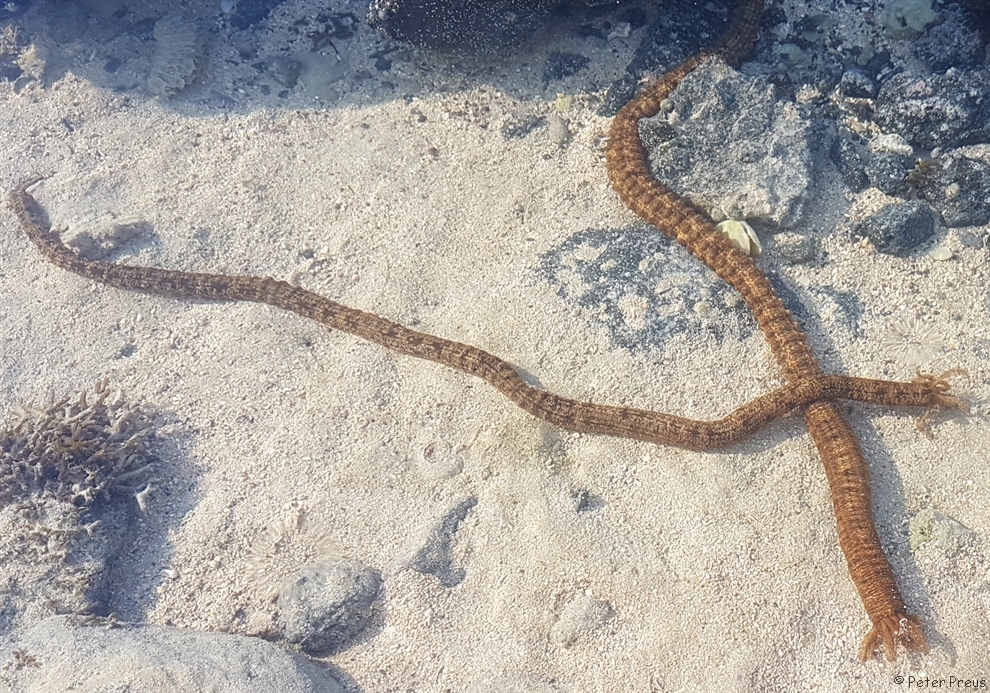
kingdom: Animalia
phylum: Echinodermata
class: Holothuroidea
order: Apodida
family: Synaptidae
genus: Synapta
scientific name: Synapta maculata
